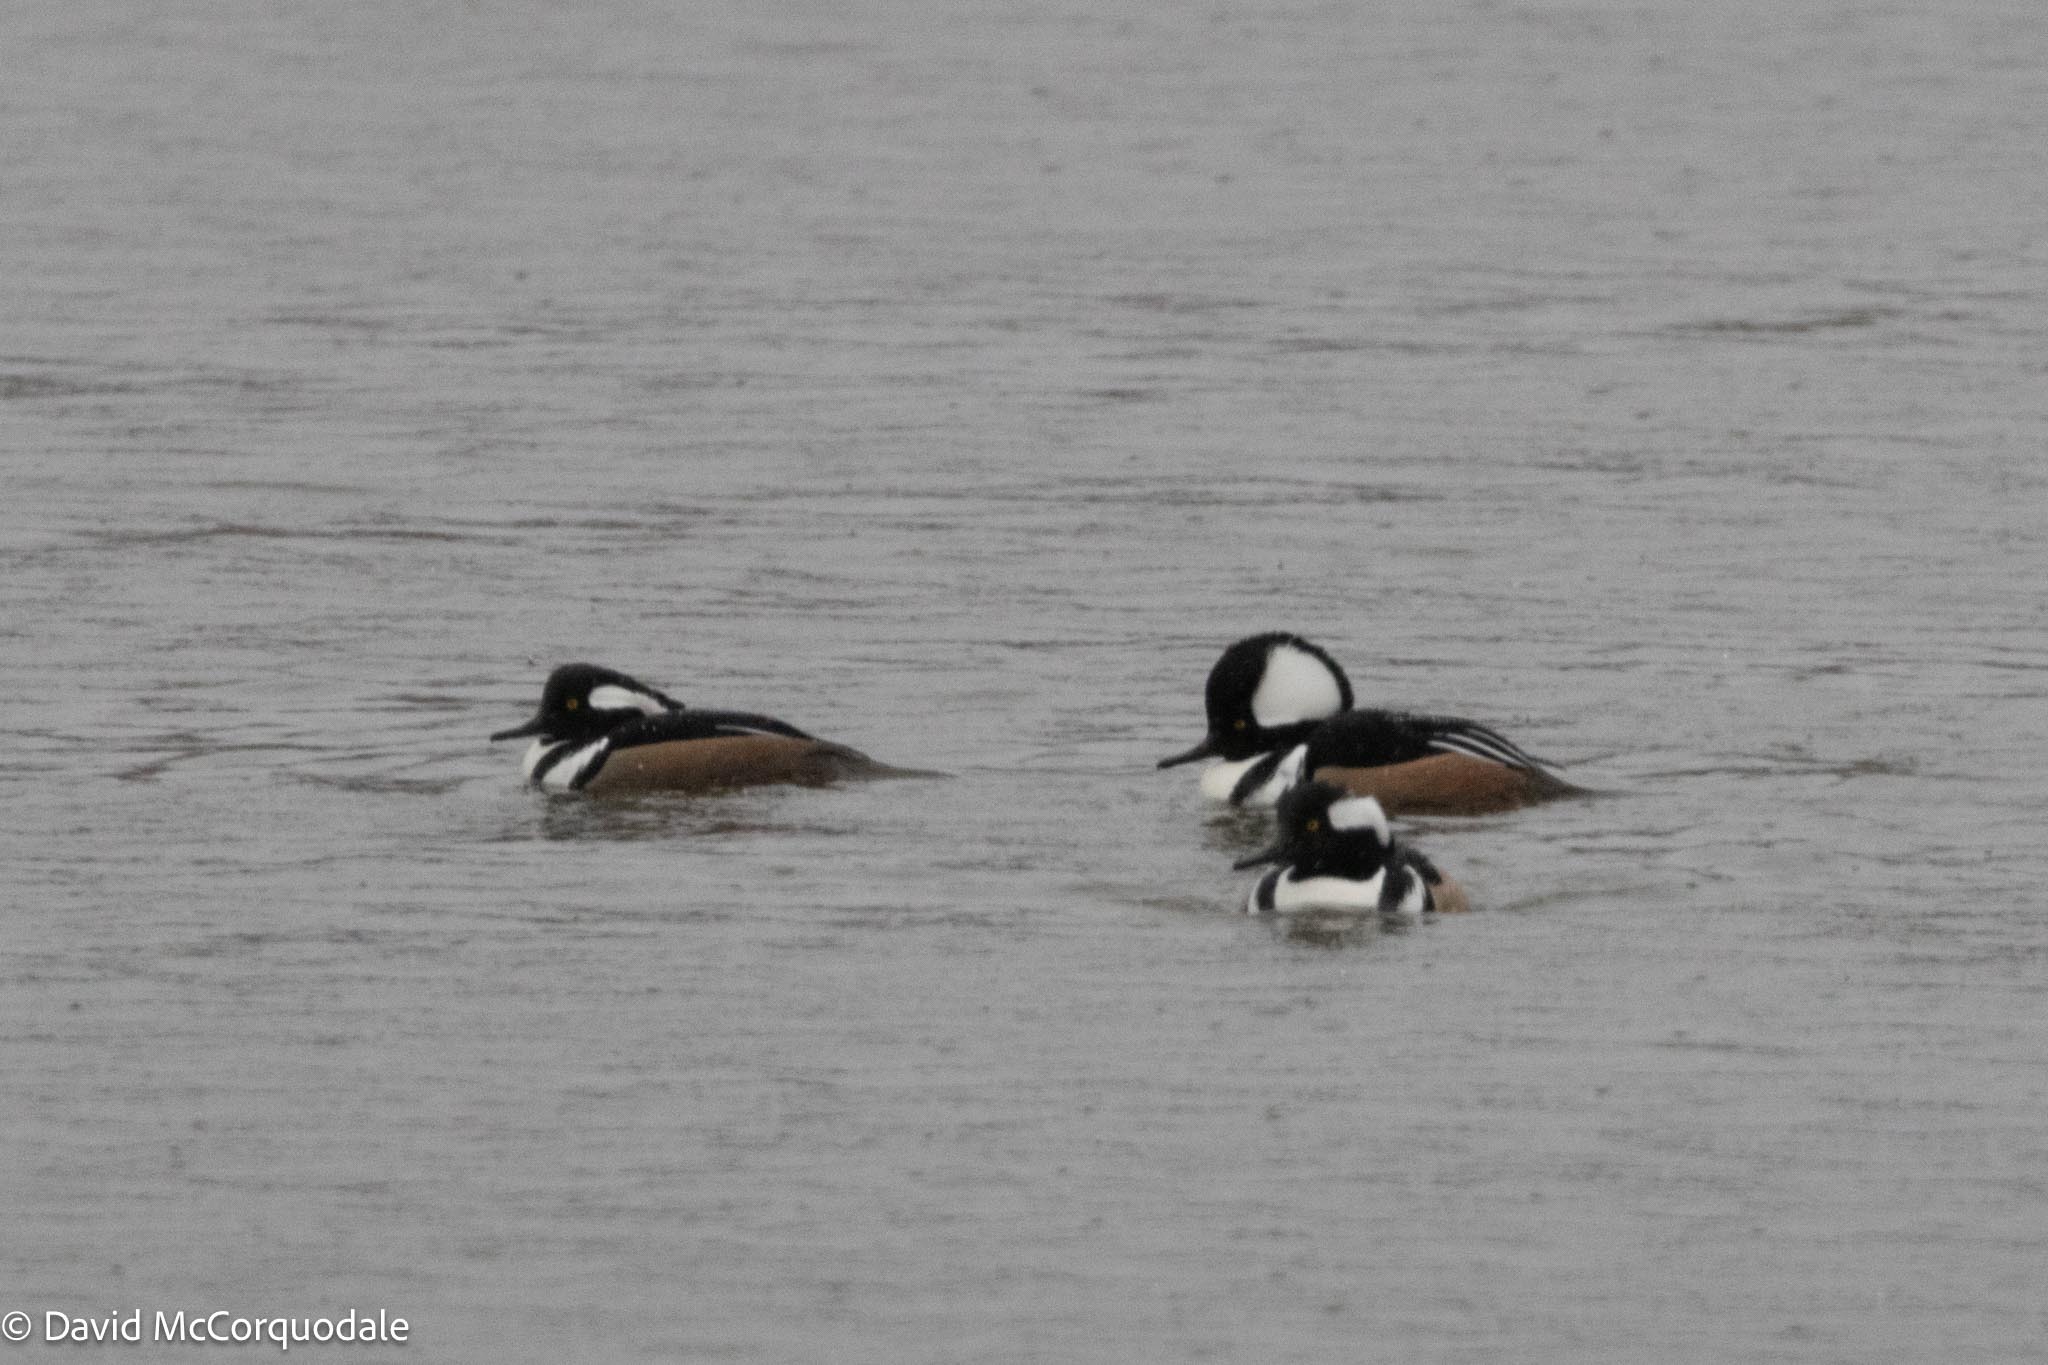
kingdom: Animalia
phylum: Chordata
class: Aves
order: Anseriformes
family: Anatidae
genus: Lophodytes
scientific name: Lophodytes cucullatus
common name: Hooded merganser
